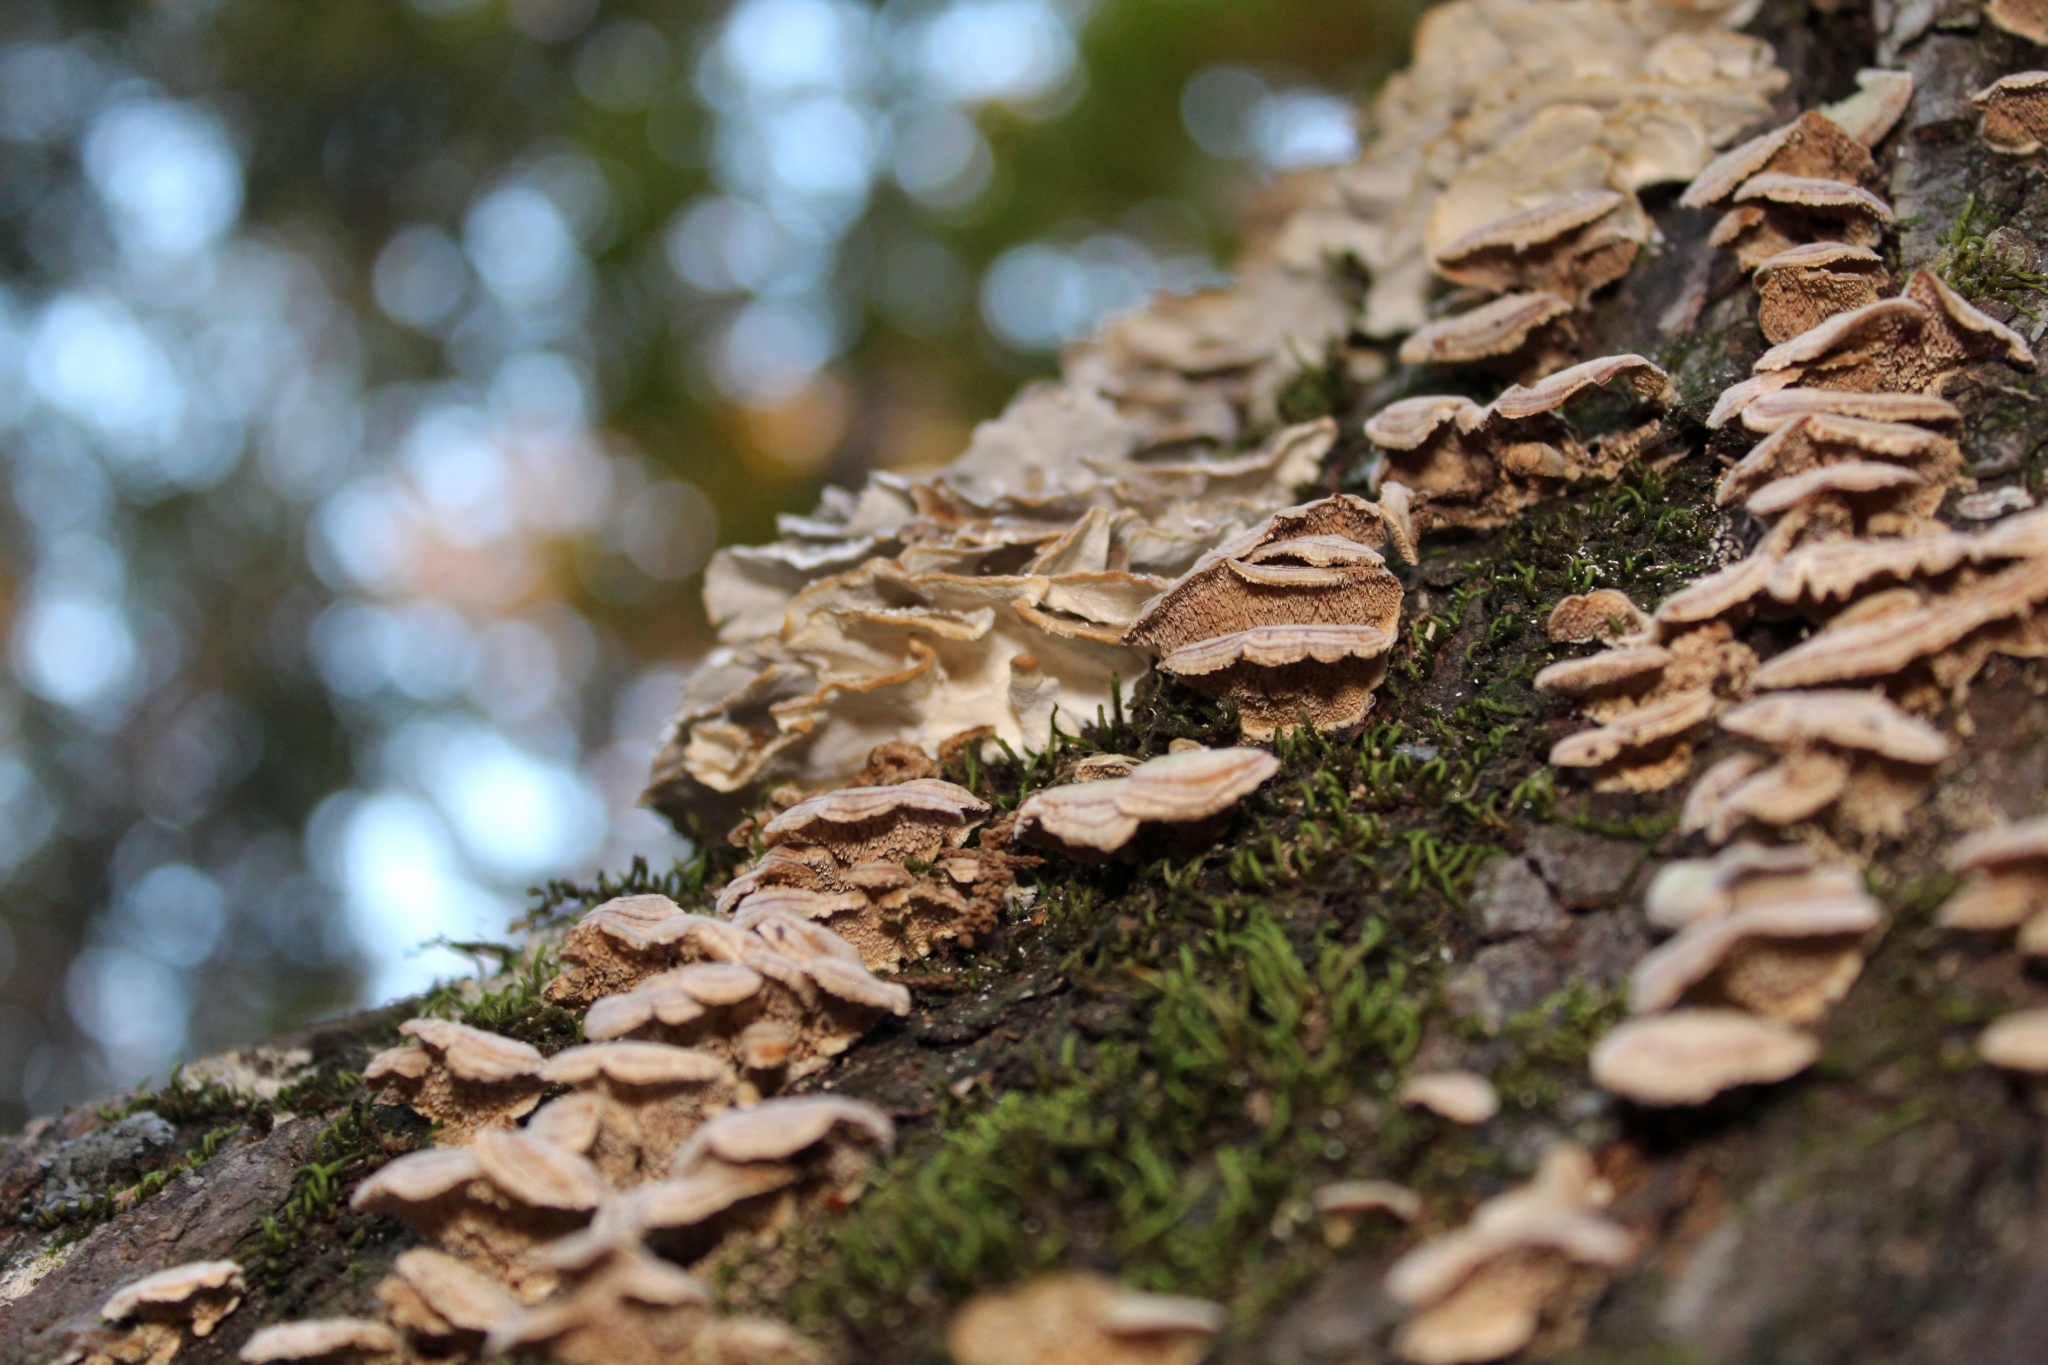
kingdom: Fungi
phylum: Basidiomycota
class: Agaricomycetes
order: Polyporales
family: Polyporaceae
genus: Trametes
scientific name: Trametes versicolor
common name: Turkeytail
